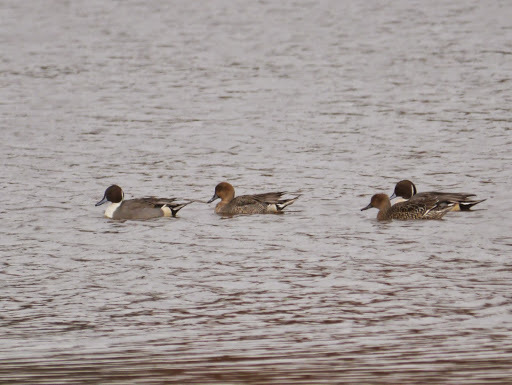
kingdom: Animalia
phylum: Chordata
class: Aves
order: Anseriformes
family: Anatidae
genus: Anas
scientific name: Anas acuta
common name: Northern pintail
